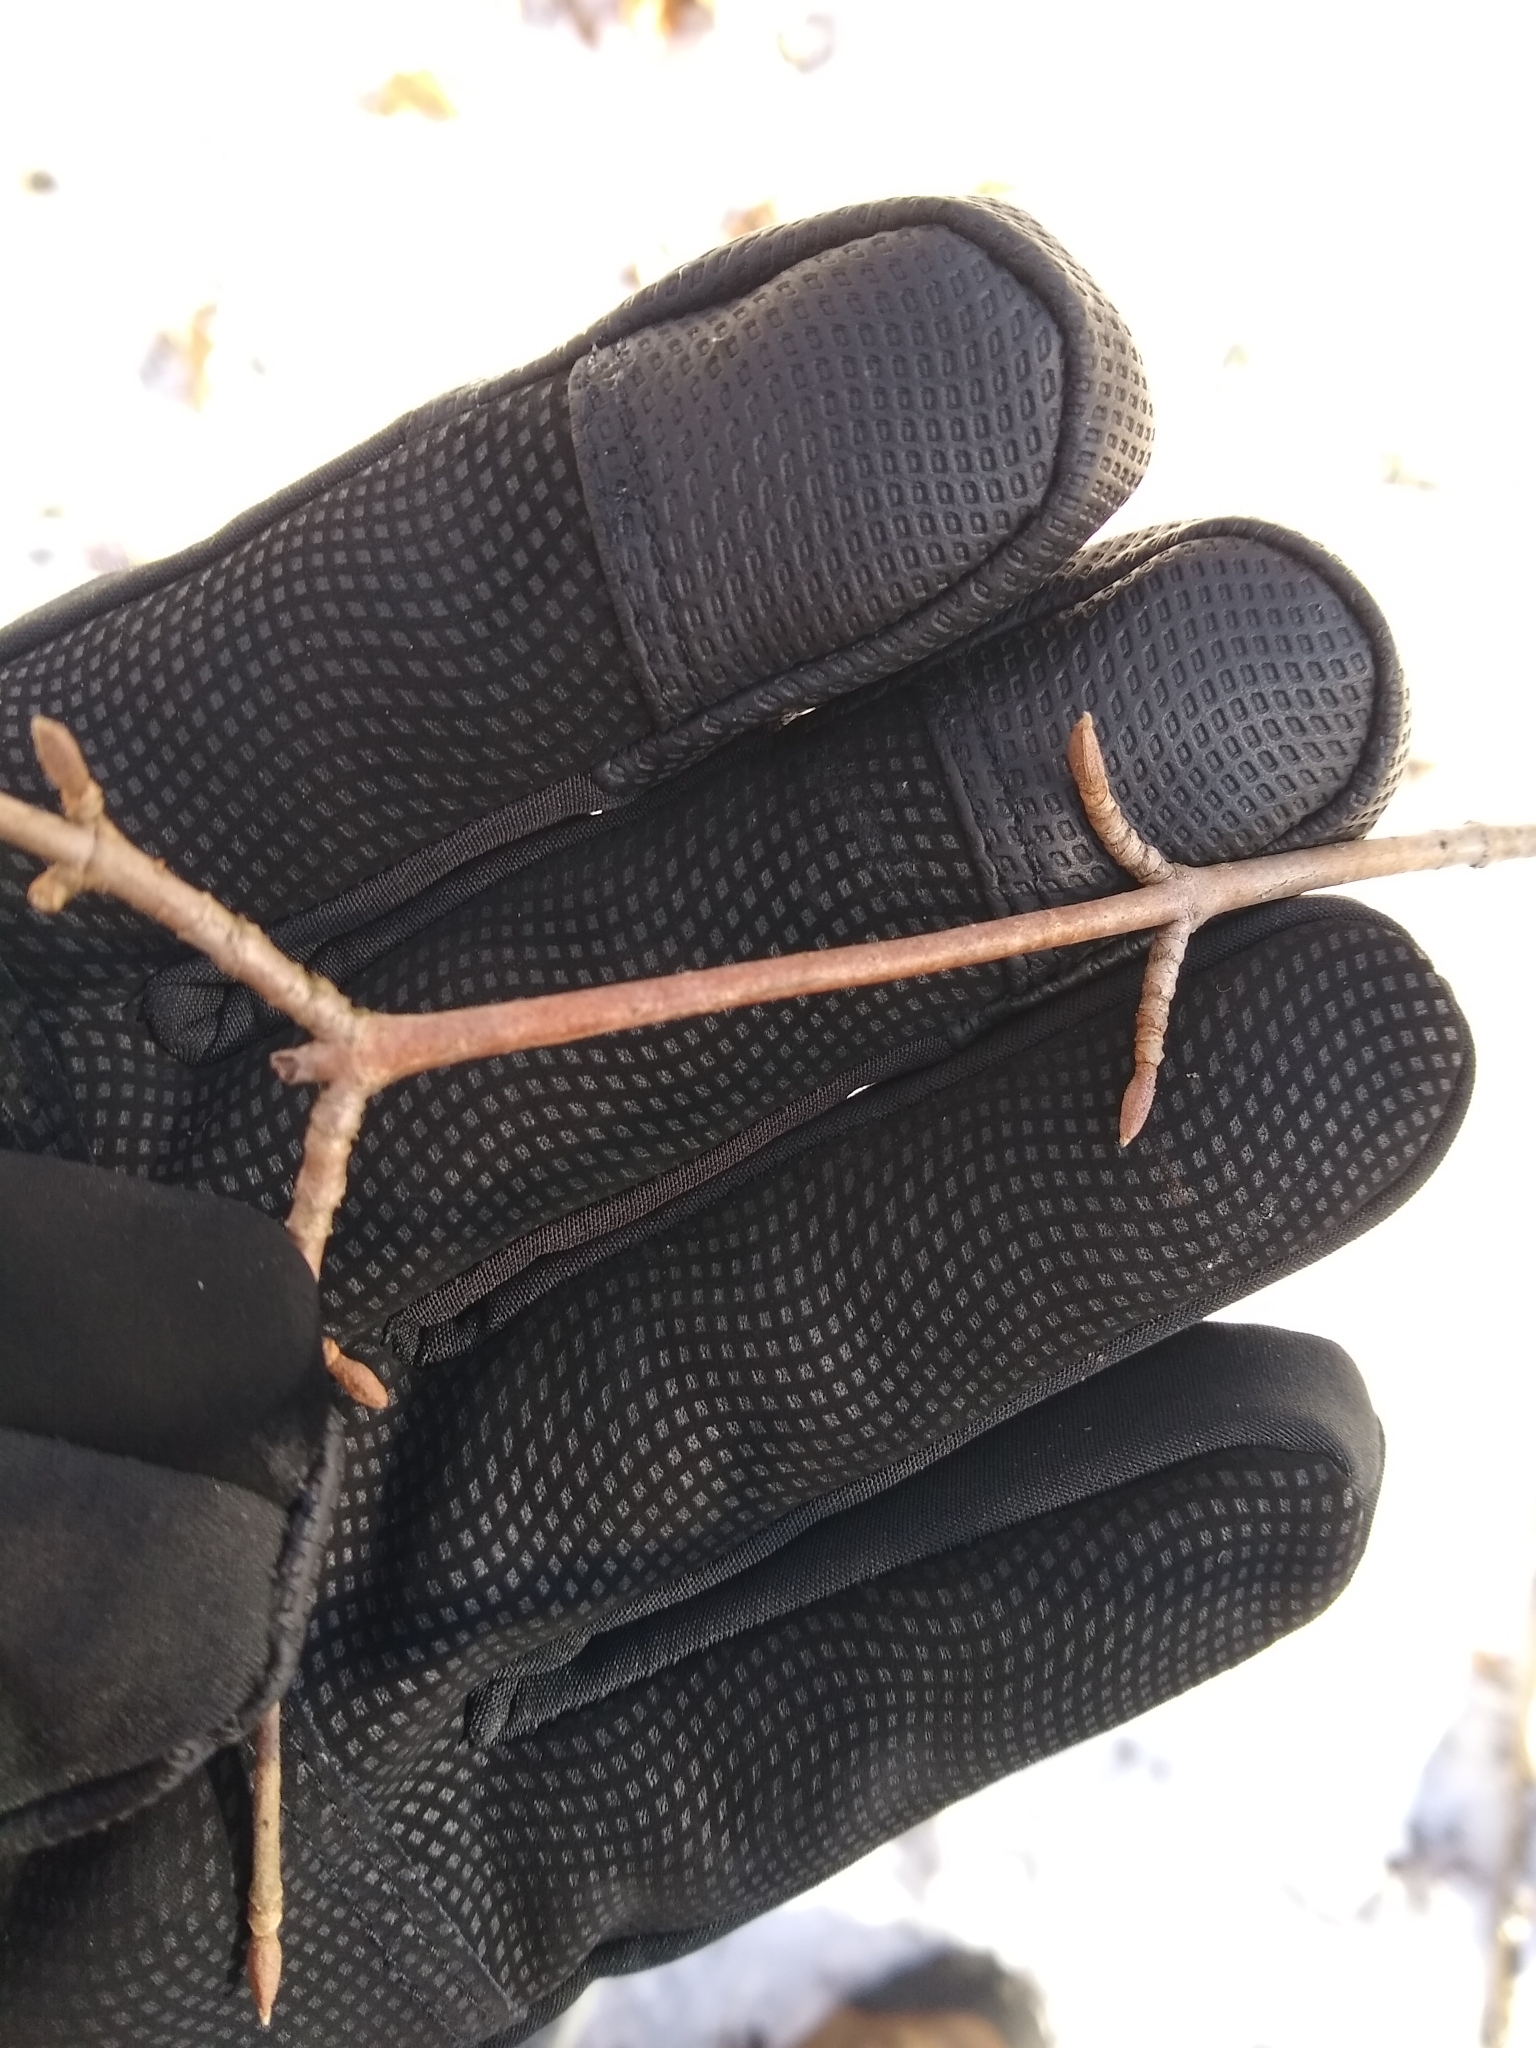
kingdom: Plantae
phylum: Tracheophyta
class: Magnoliopsida
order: Dipsacales
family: Viburnaceae
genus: Viburnum
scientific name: Viburnum
